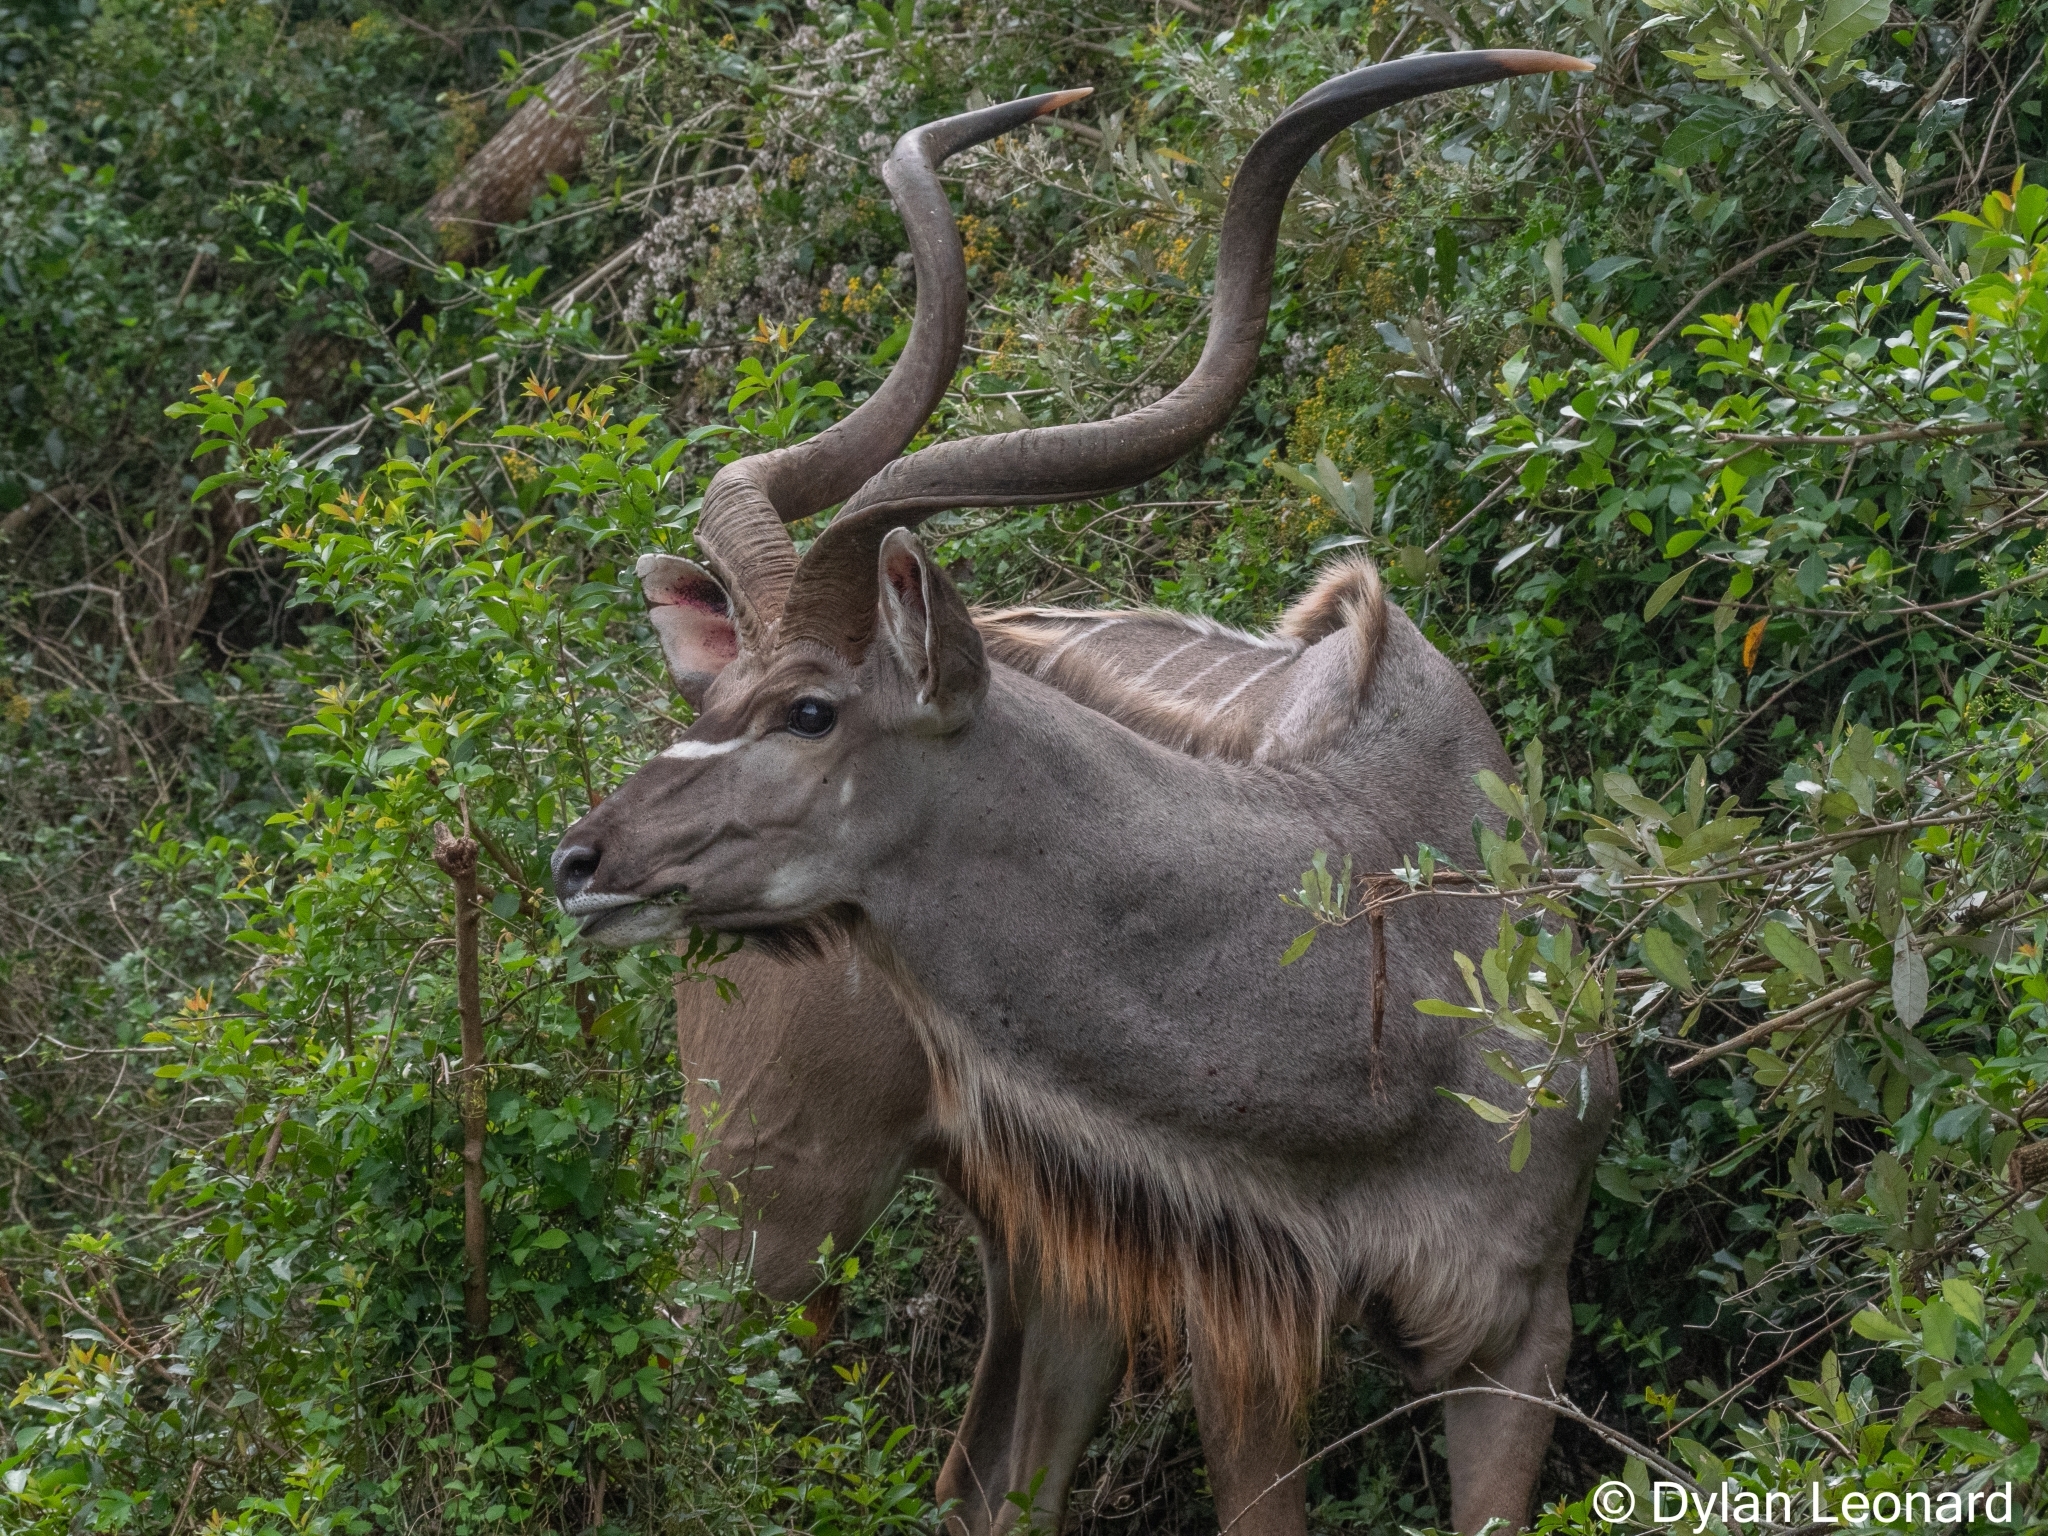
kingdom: Animalia
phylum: Chordata
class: Mammalia
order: Artiodactyla
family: Bovidae
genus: Tragelaphus
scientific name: Tragelaphus strepsiceros
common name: Greater kudu
